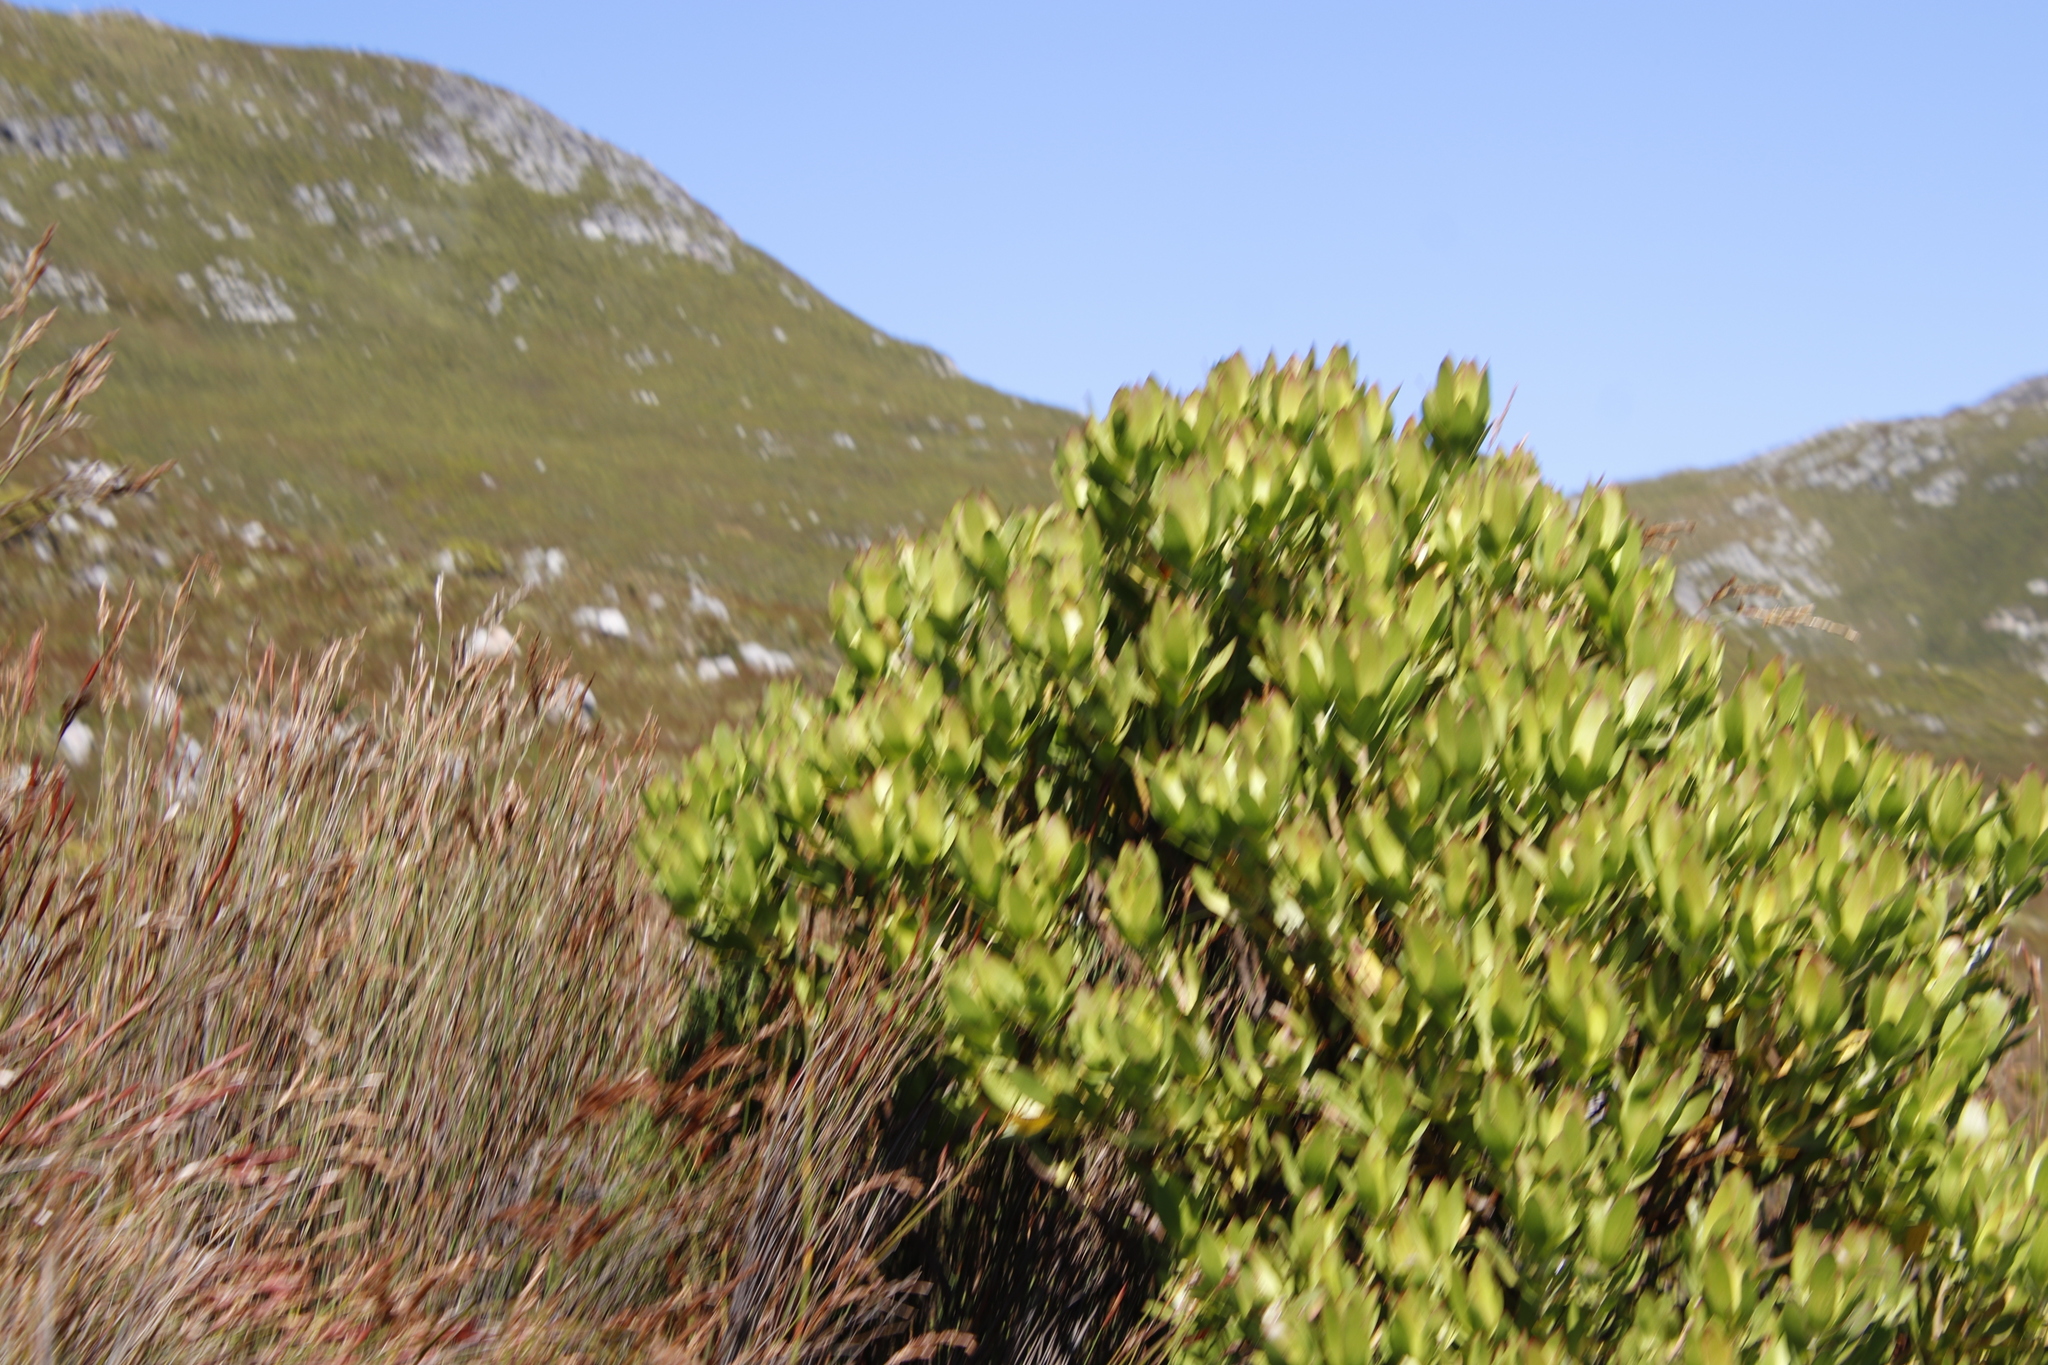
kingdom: Plantae
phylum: Tracheophyta
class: Magnoliopsida
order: Proteales
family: Proteaceae
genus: Leucadendron
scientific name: Leucadendron laureolum
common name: Golden sunshinebush
